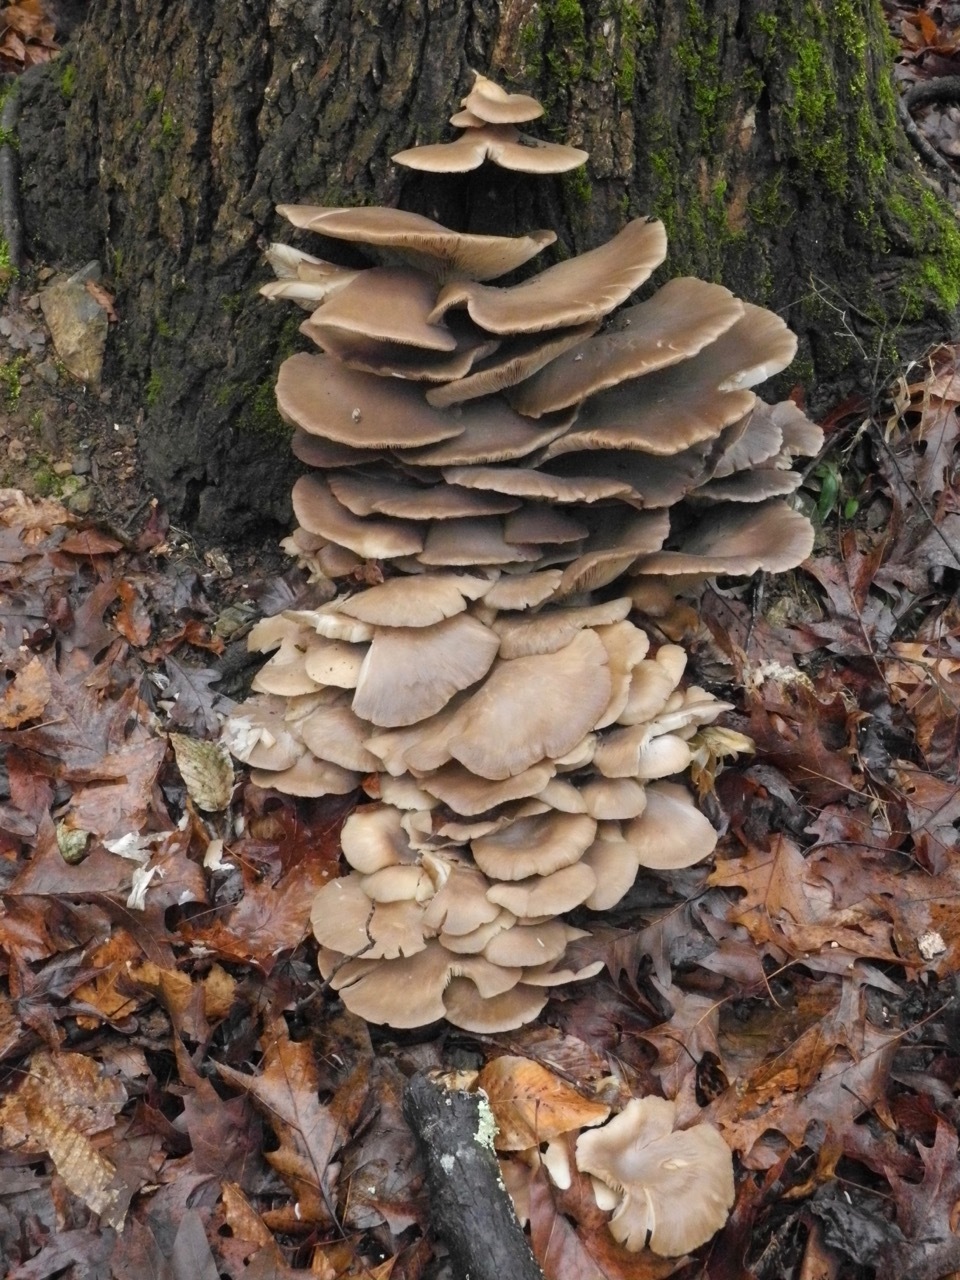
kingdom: Fungi
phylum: Basidiomycota
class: Agaricomycetes
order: Agaricales
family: Pleurotaceae
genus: Pleurotus
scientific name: Pleurotus ostreatus
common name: Oyster mushroom
